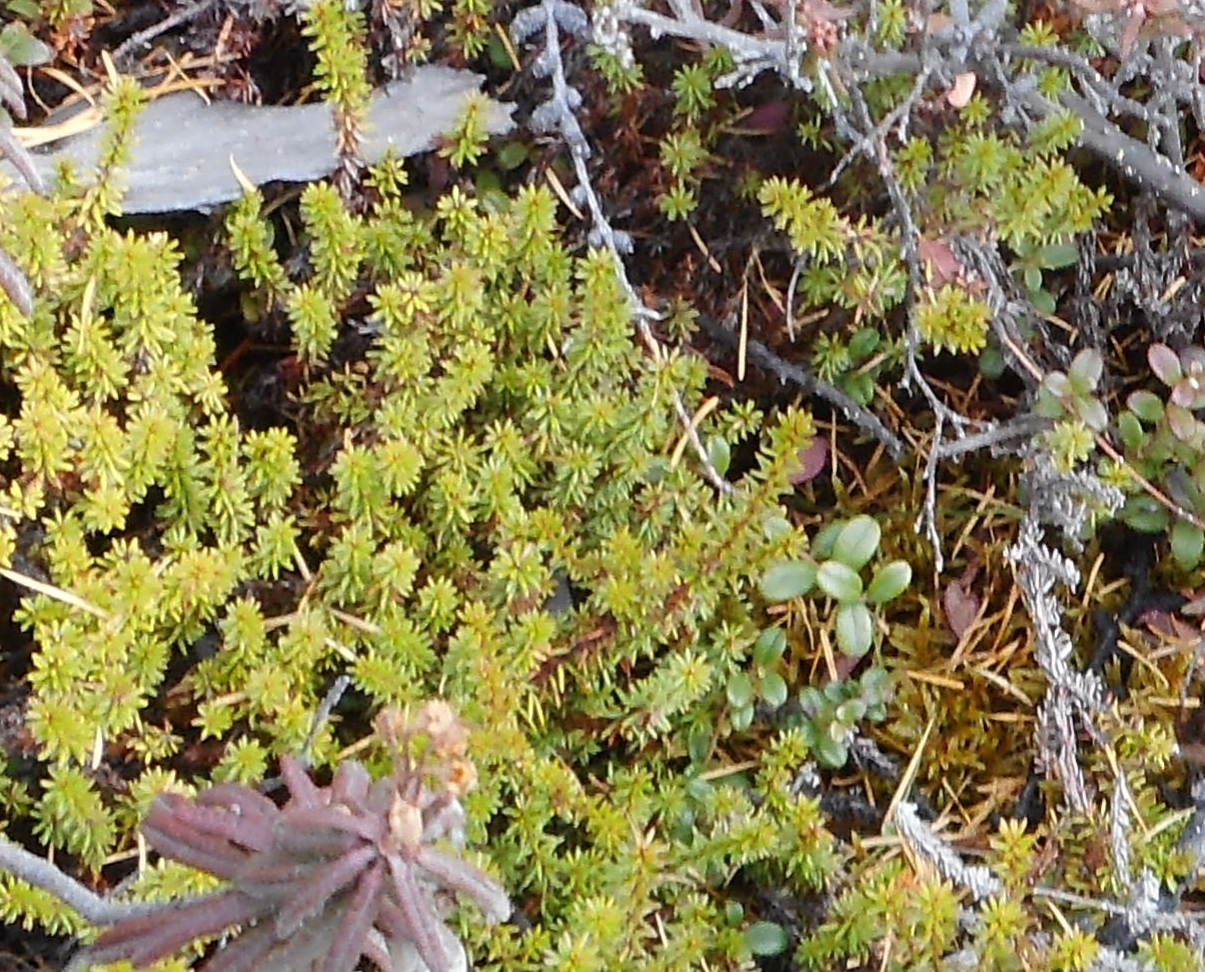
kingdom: Plantae
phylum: Tracheophyta
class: Magnoliopsida
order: Ericales
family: Ericaceae
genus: Empetrum
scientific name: Empetrum nigrum
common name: Black crowberry
